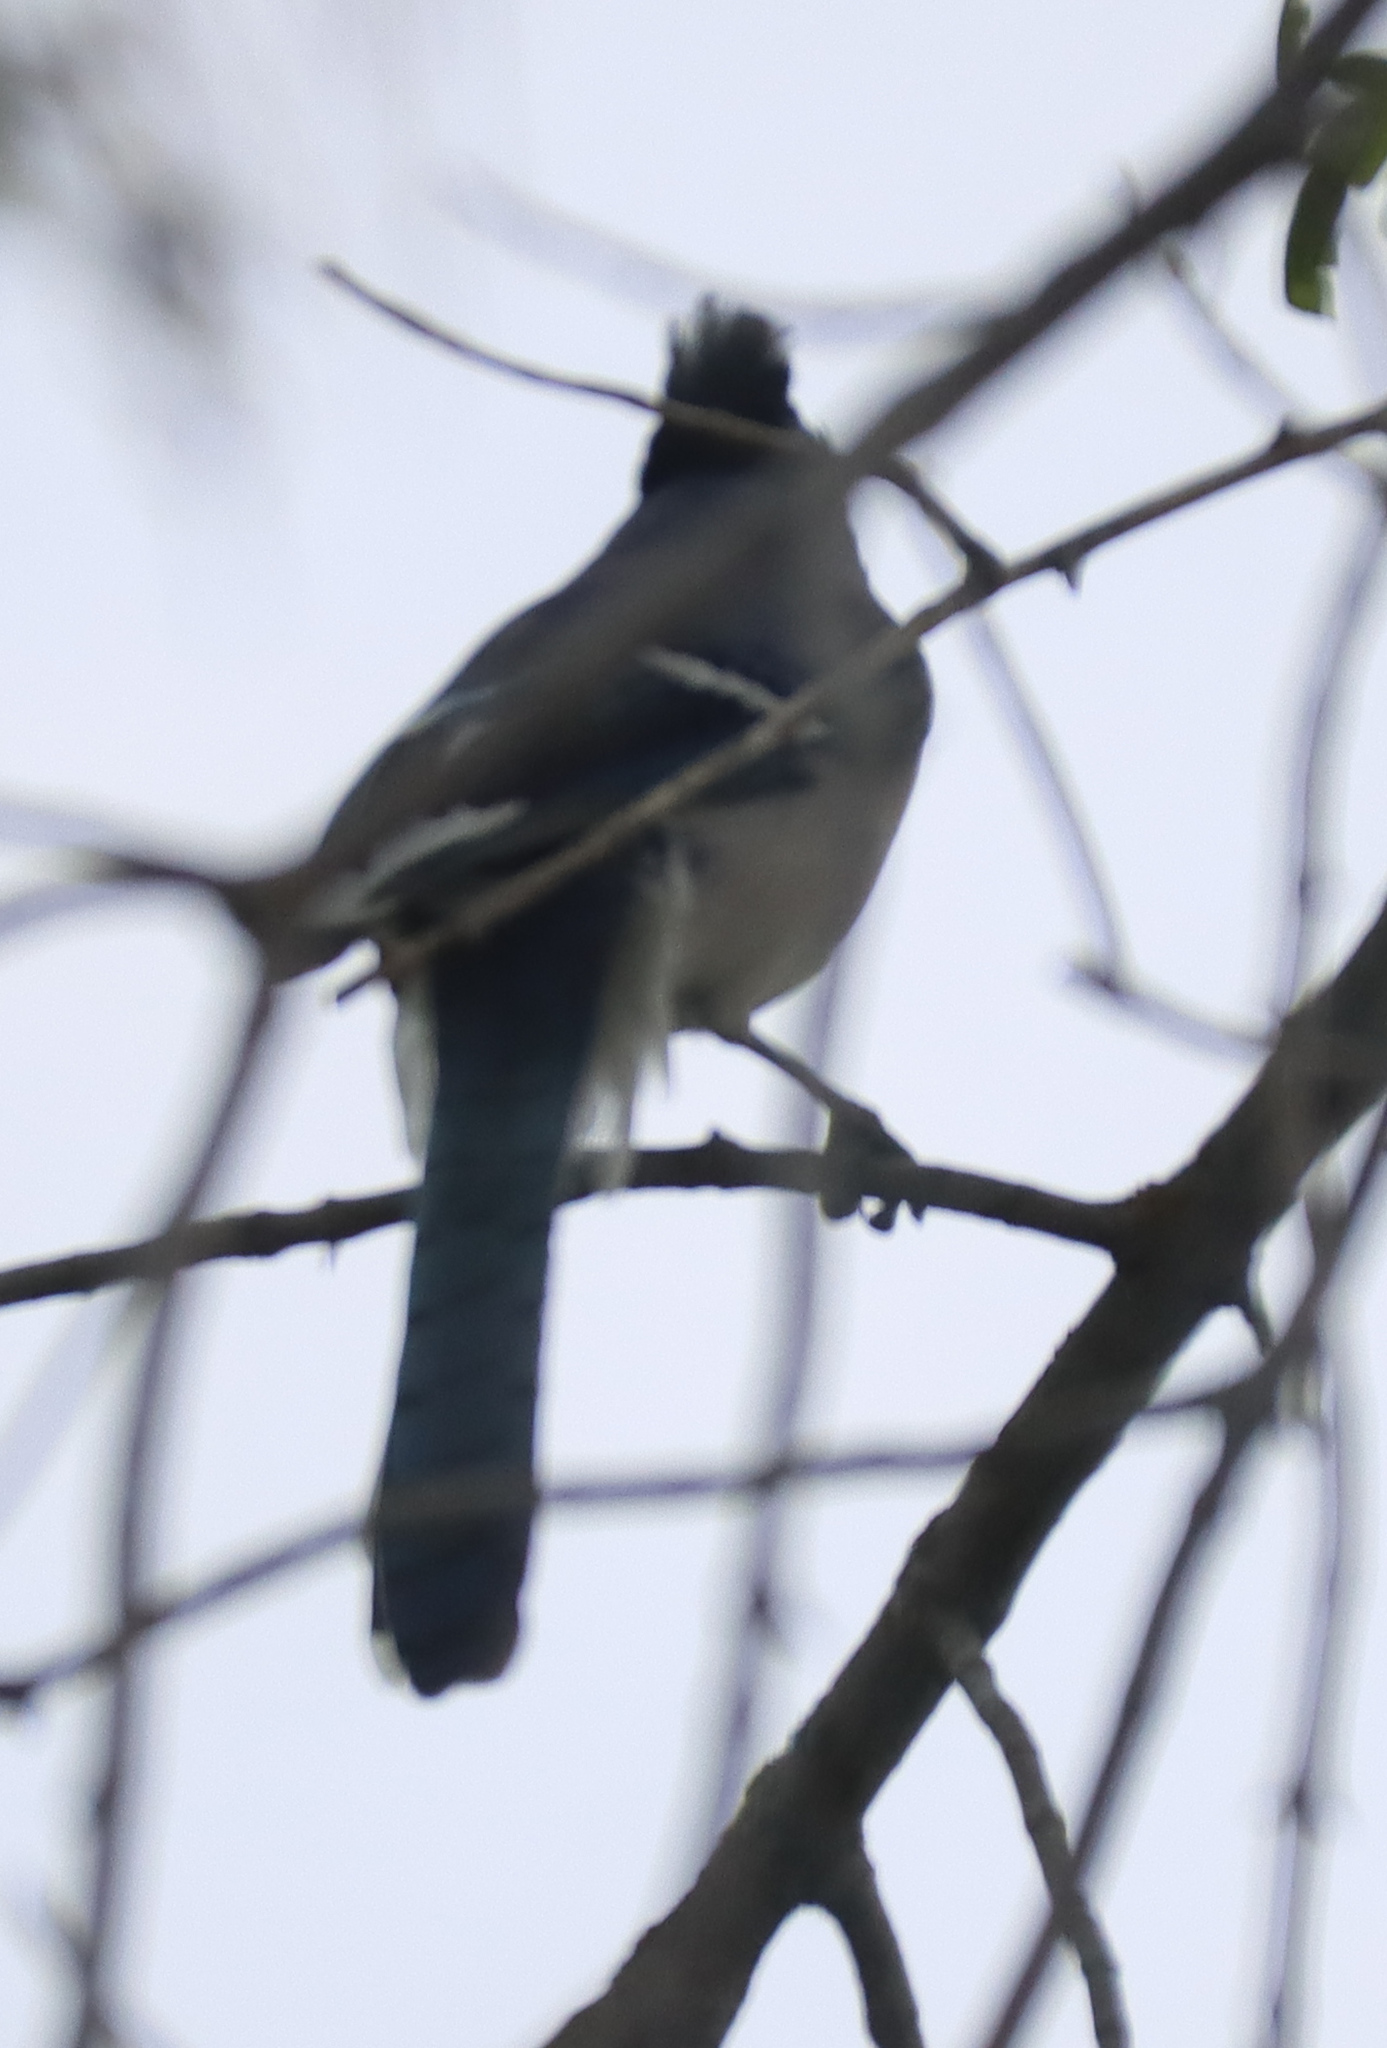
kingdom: Animalia
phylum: Chordata
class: Aves
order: Passeriformes
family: Corvidae
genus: Cyanocitta
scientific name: Cyanocitta cristata
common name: Blue jay
